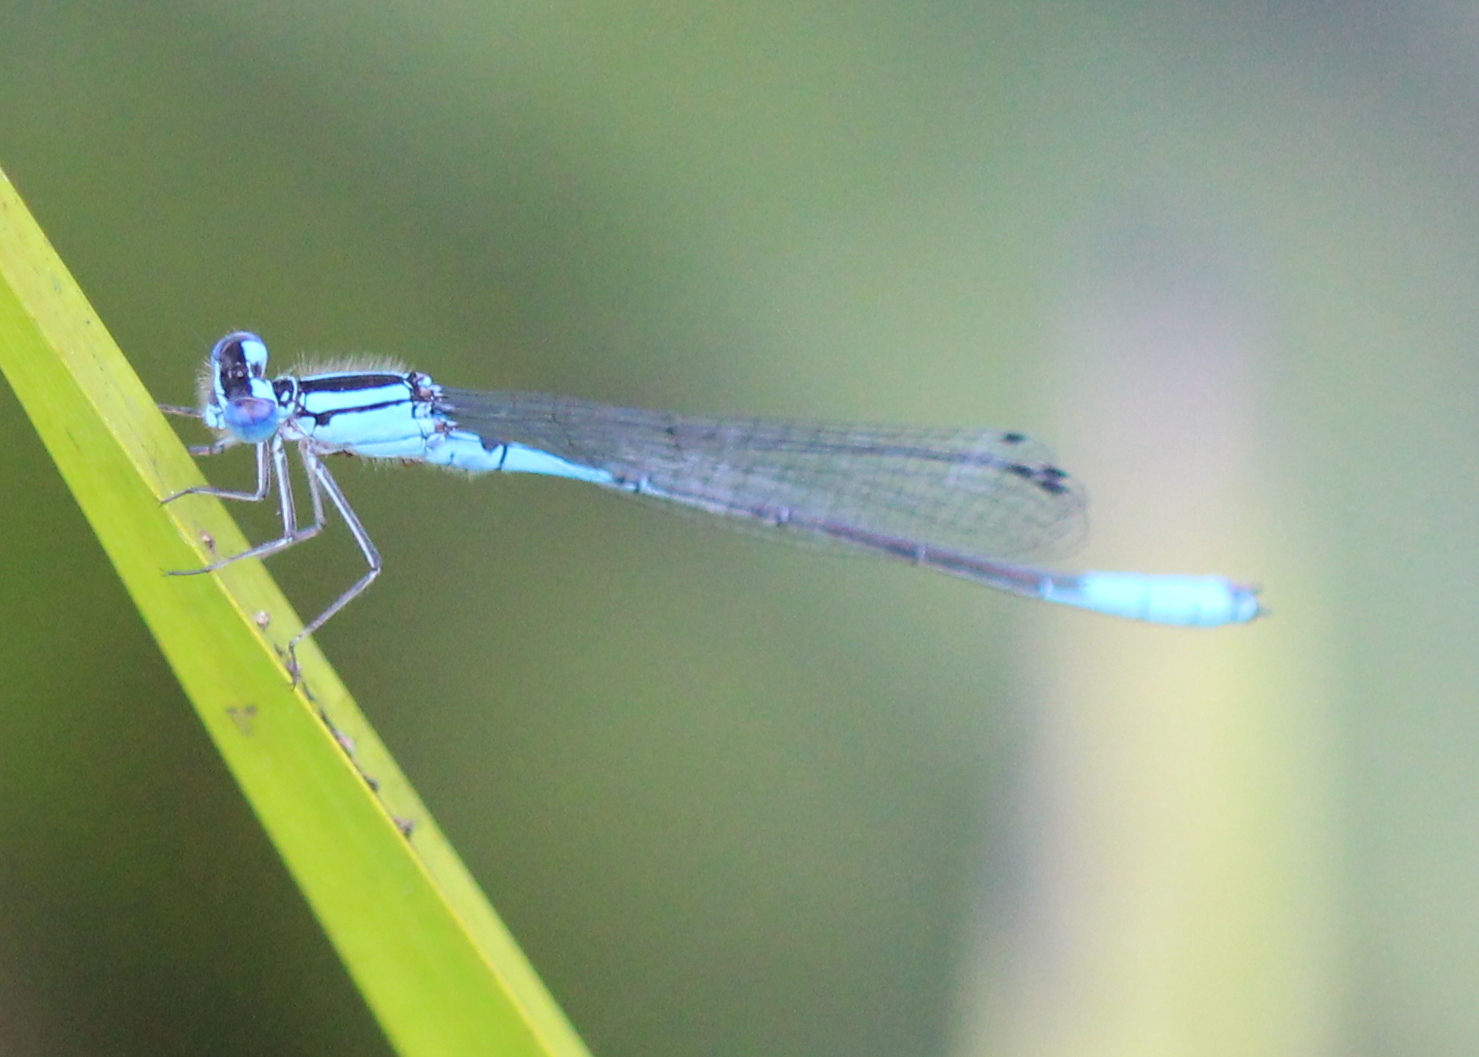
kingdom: Animalia
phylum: Arthropoda
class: Insecta
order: Odonata
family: Coenagrionidae
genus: Enallagma
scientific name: Enallagma aspersum
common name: Azure bluet
